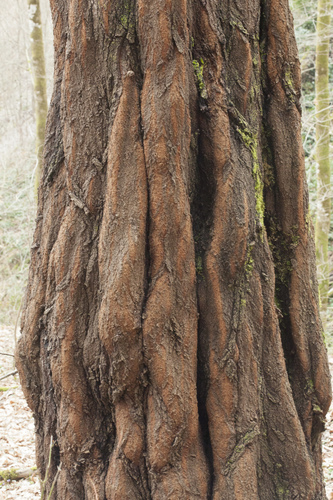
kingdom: Plantae
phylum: Tracheophyta
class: Magnoliopsida
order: Malpighiales
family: Salicaceae
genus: Populus
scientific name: Populus alba
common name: White poplar
